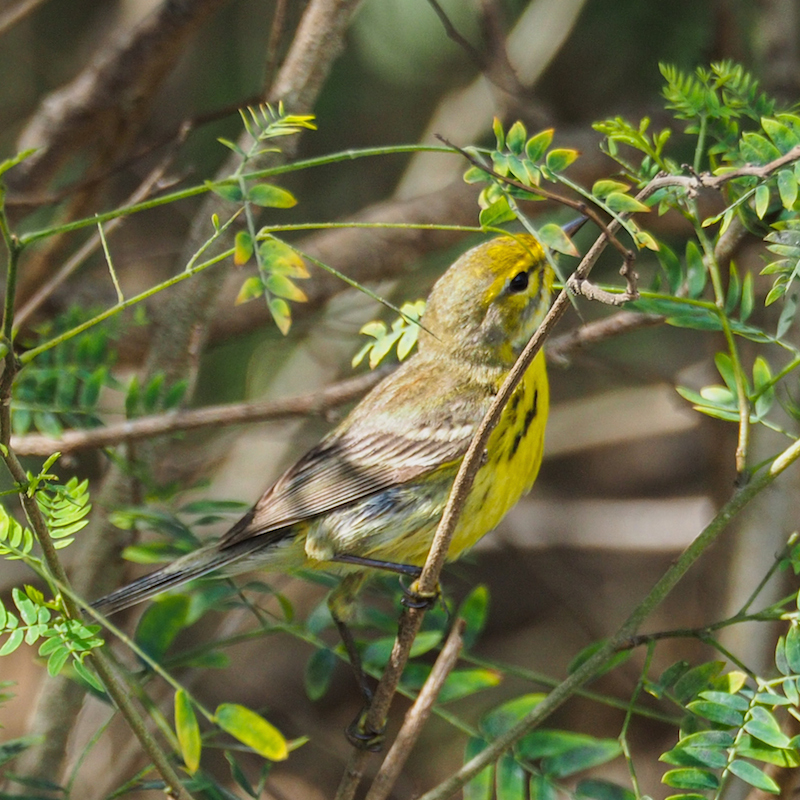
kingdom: Animalia
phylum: Chordata
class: Aves
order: Passeriformes
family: Parulidae
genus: Setophaga
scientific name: Setophaga discolor
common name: Prairie warbler
